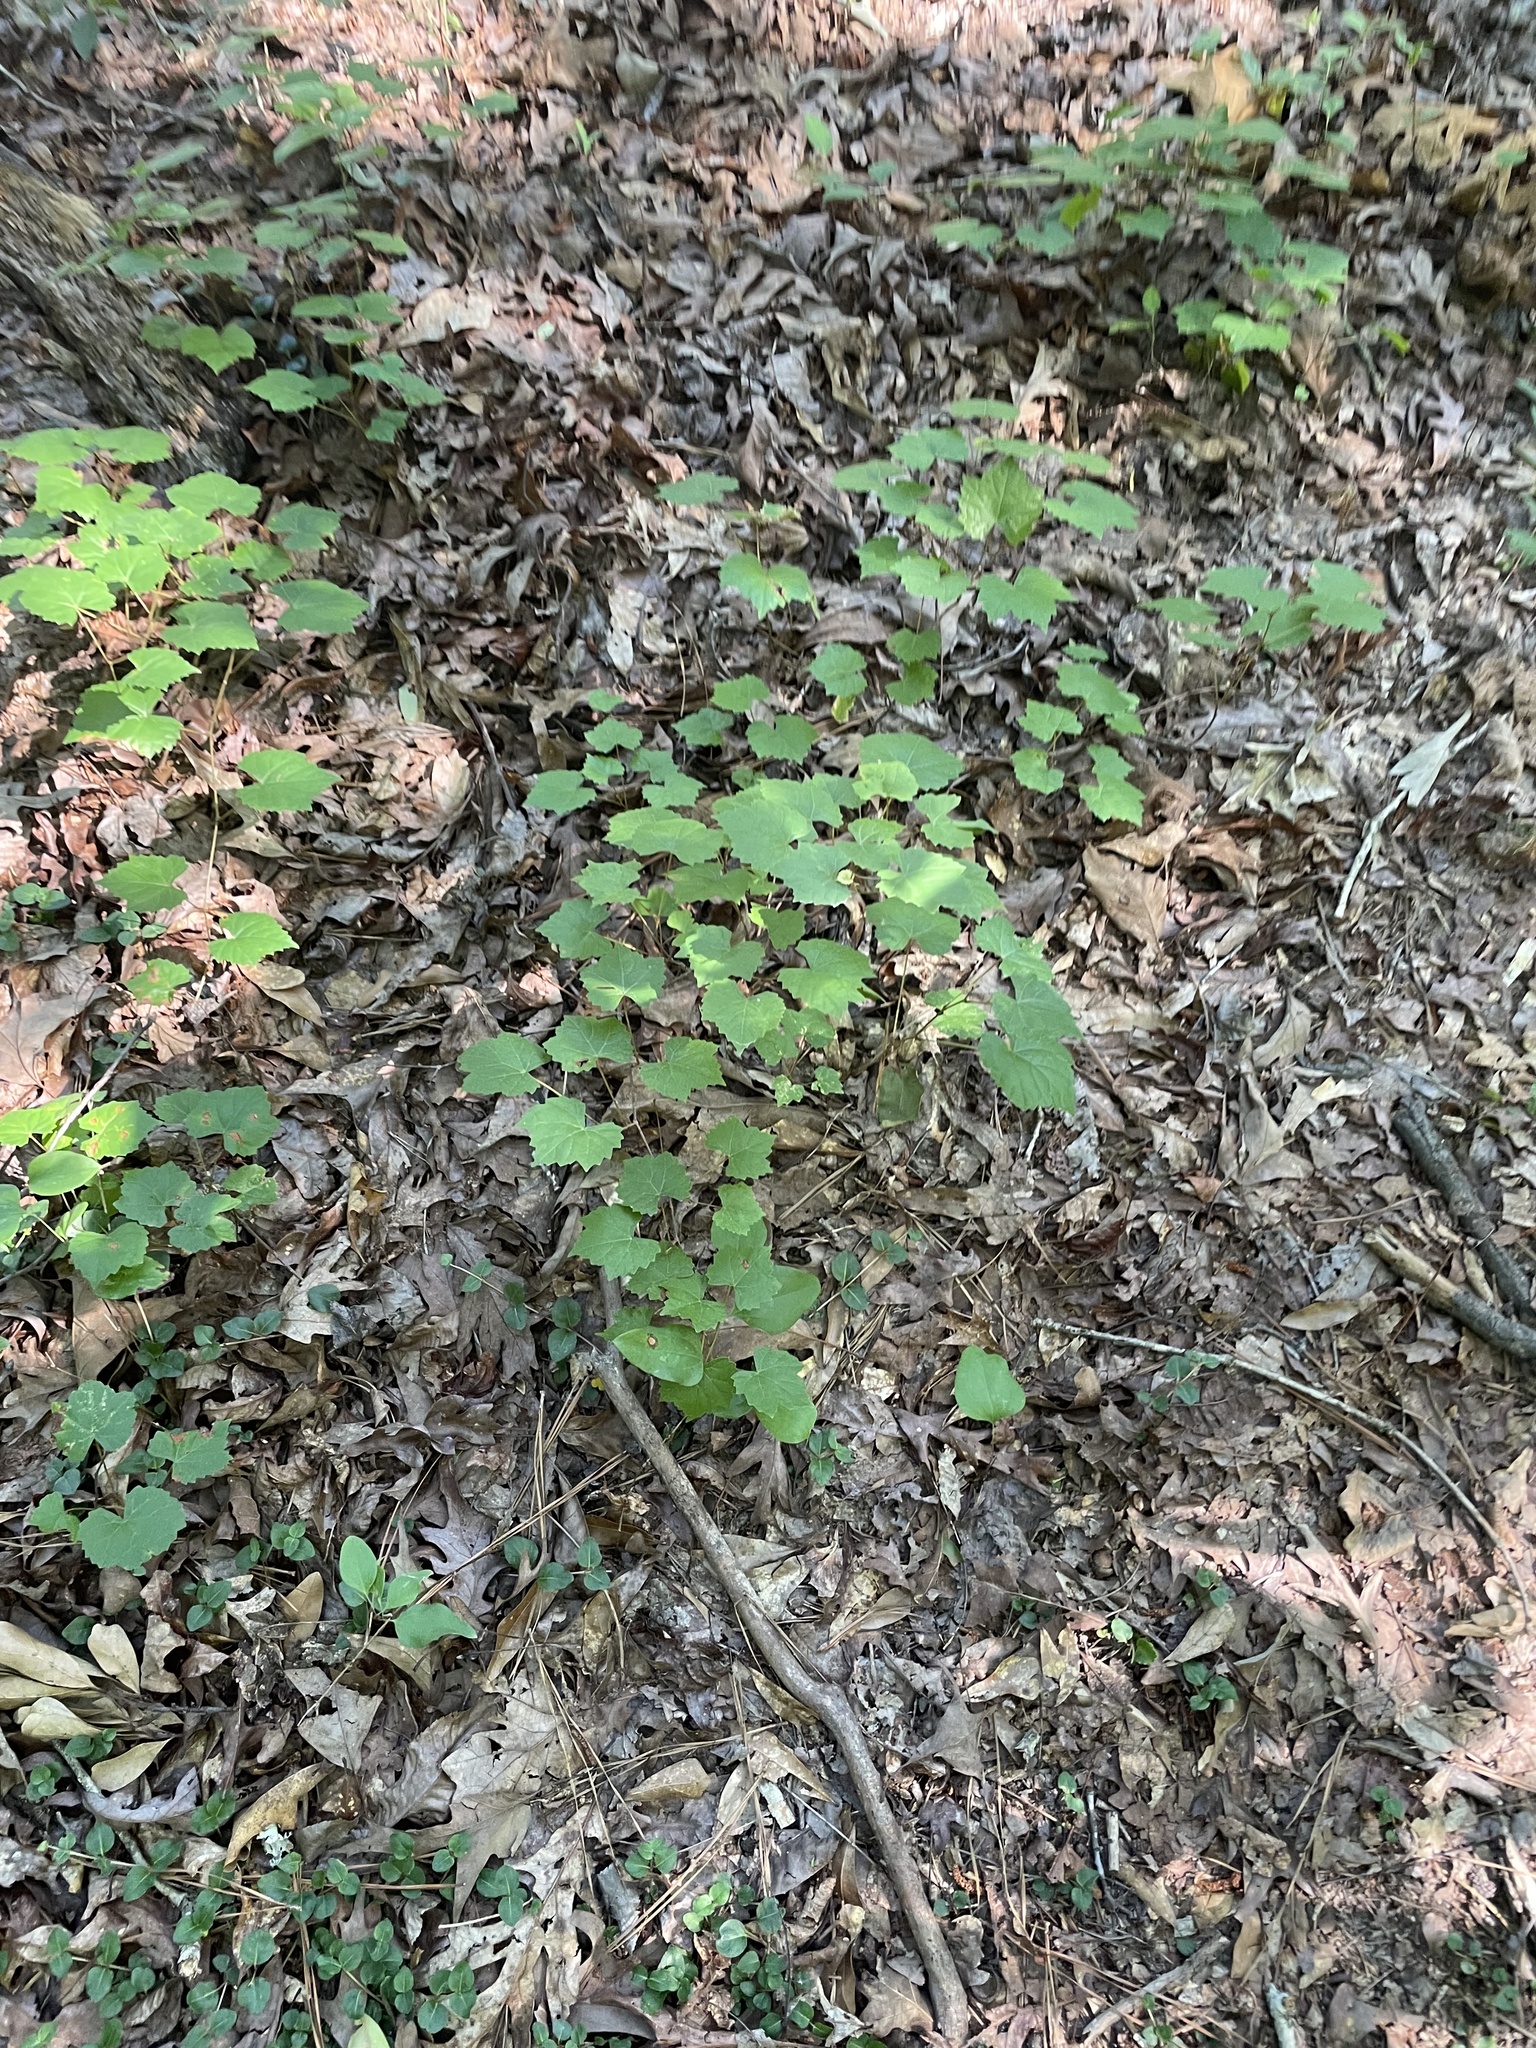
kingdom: Plantae
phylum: Tracheophyta
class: Magnoliopsida
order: Vitales
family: Vitaceae
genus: Vitis
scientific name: Vitis rotundifolia
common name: Muscadine grape
